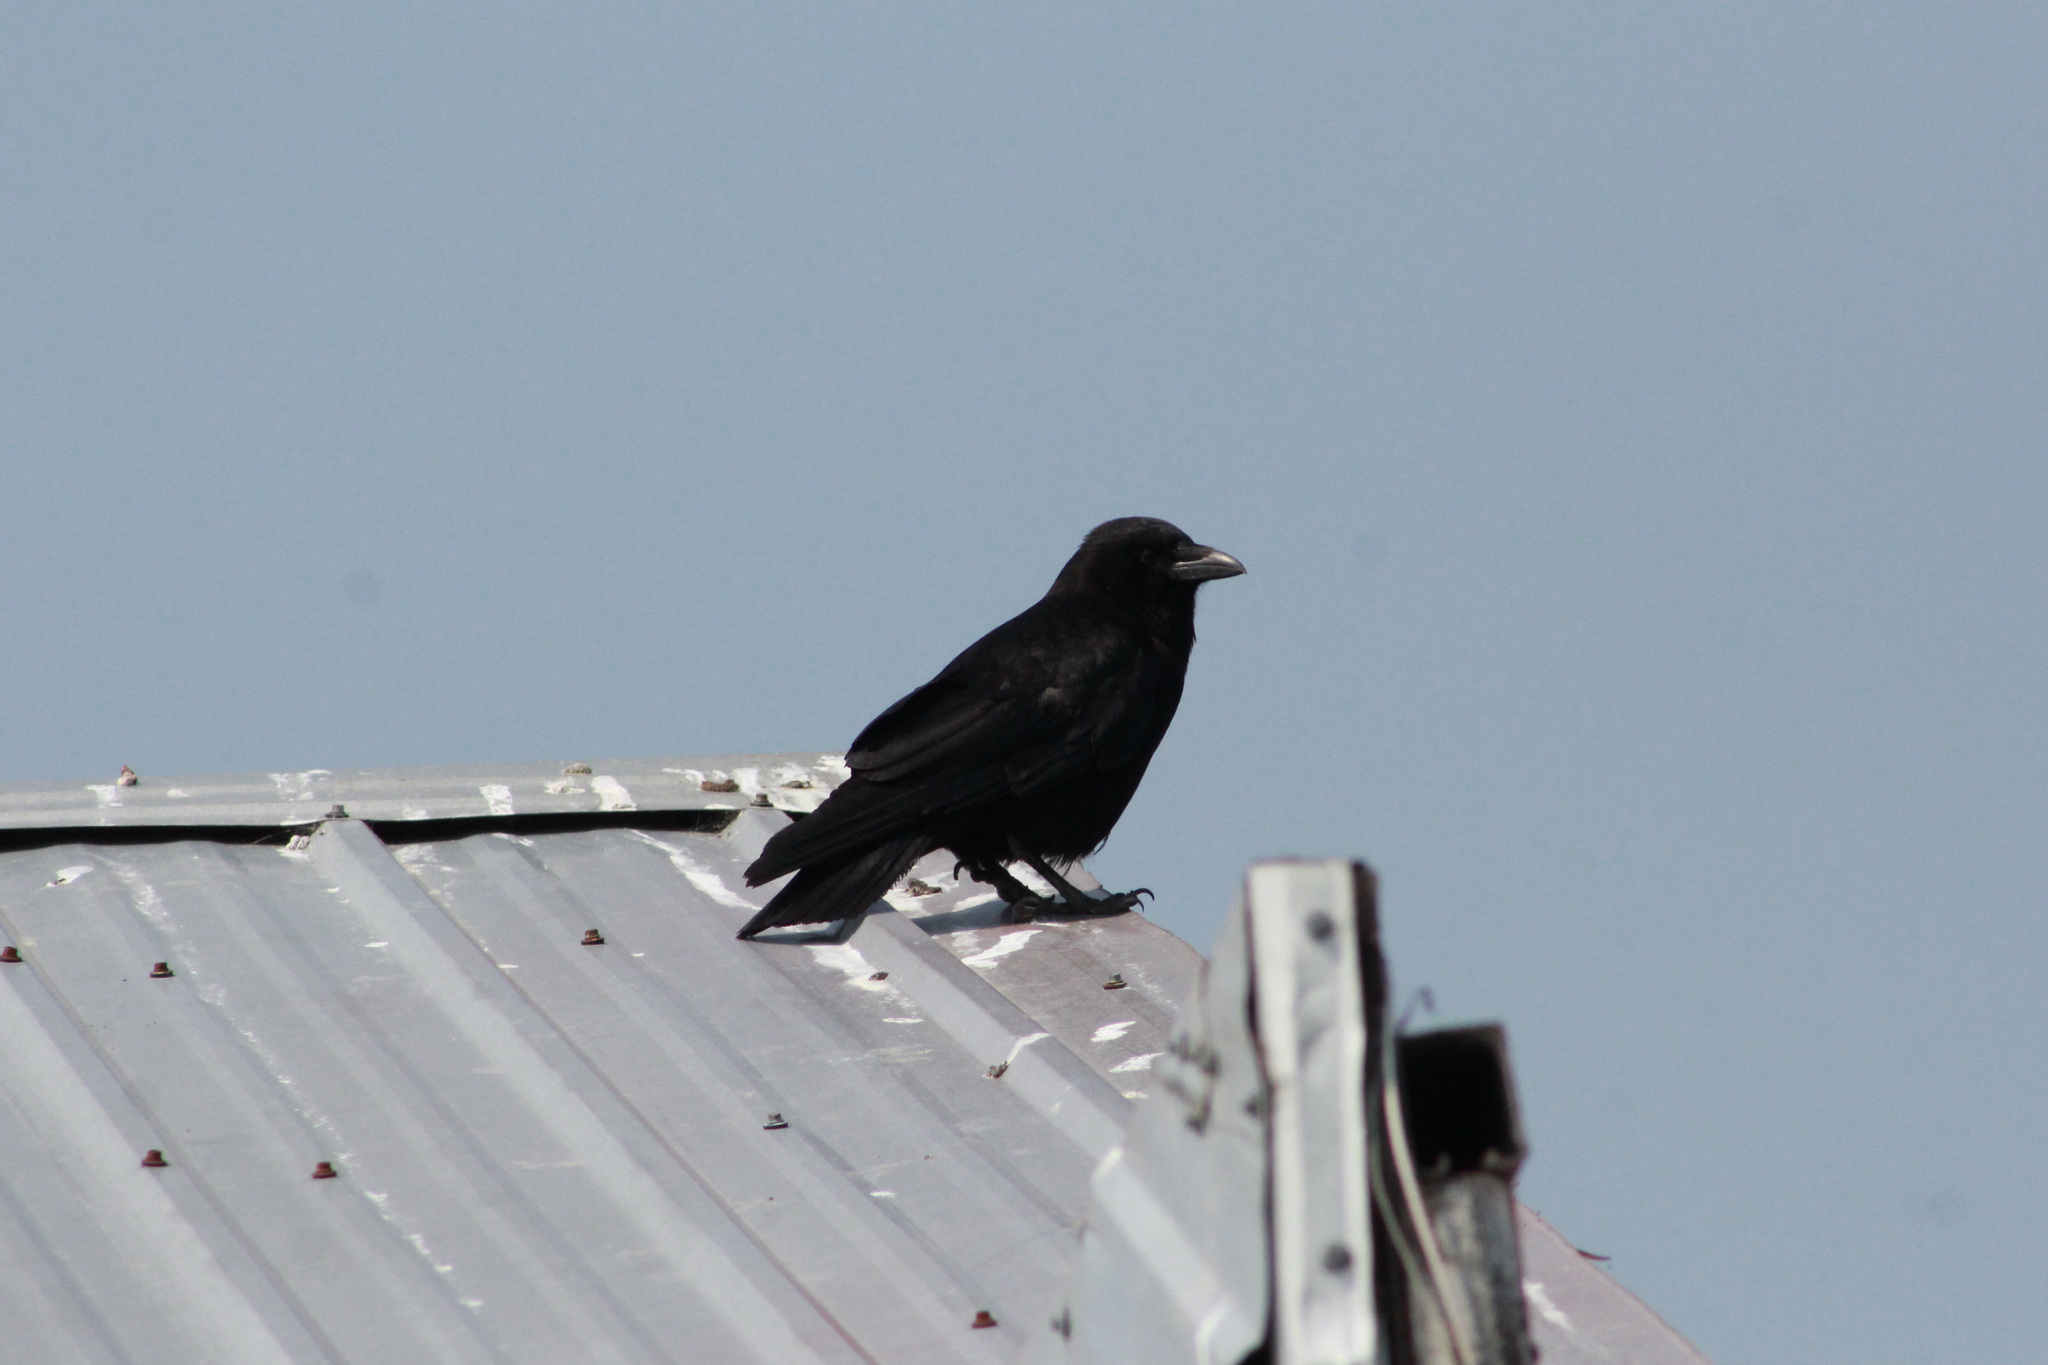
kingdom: Animalia
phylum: Chordata
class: Aves
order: Passeriformes
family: Corvidae
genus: Corvus
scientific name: Corvus brachyrhynchos
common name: American crow
